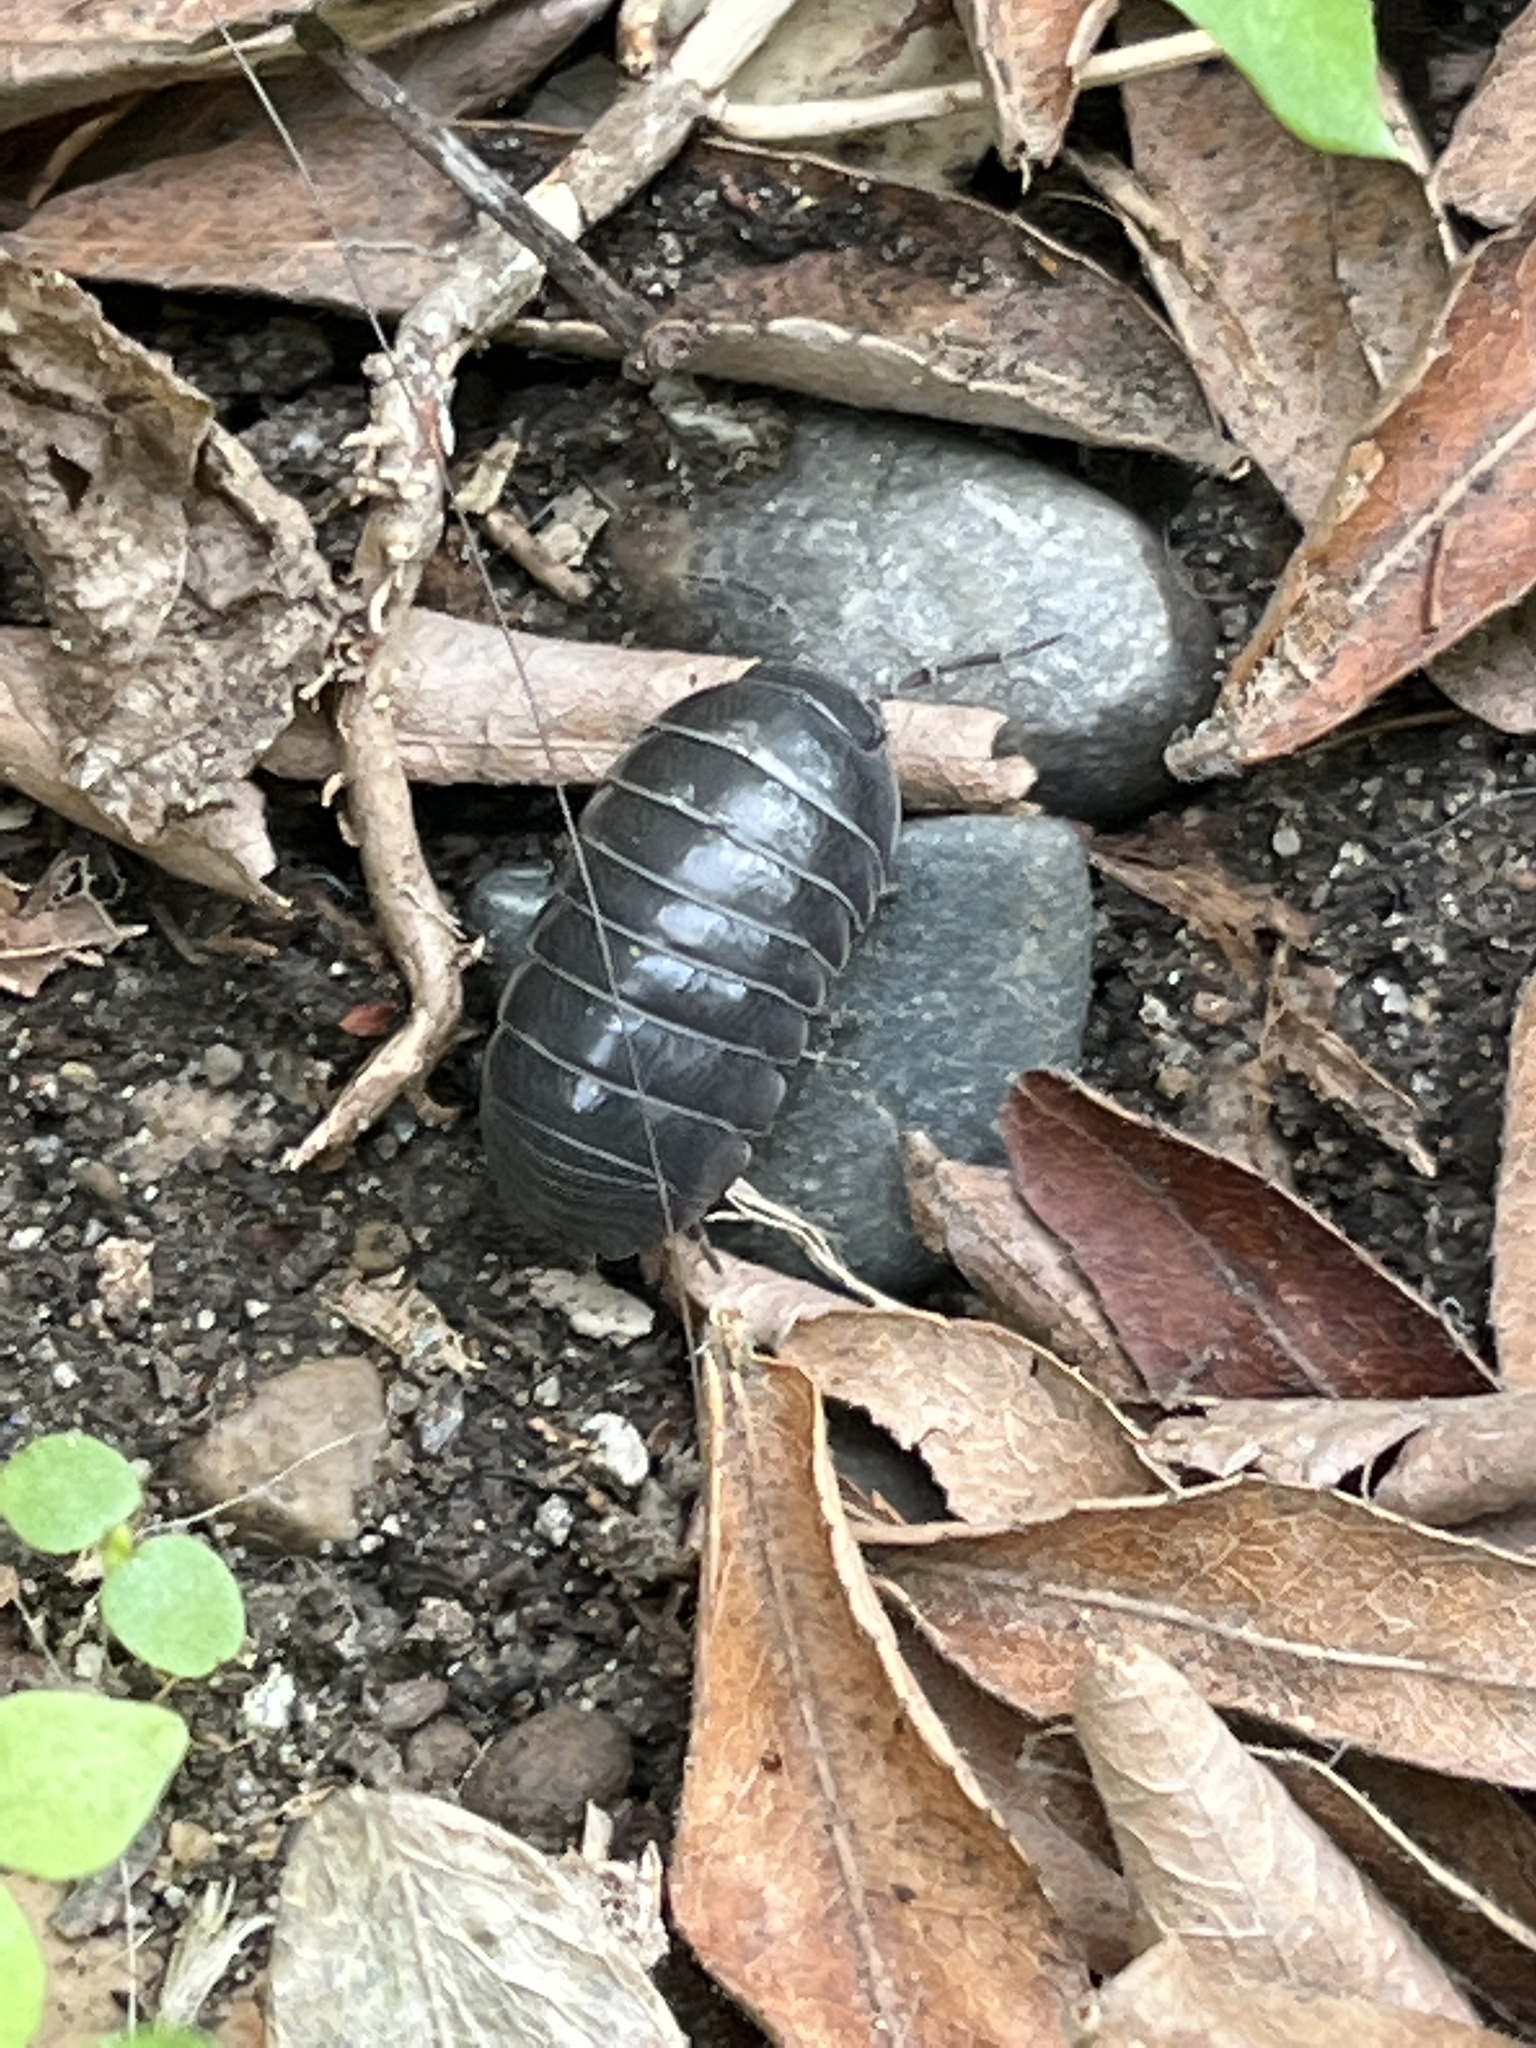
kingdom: Animalia
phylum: Arthropoda
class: Malacostraca
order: Isopoda
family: Armadillidiidae
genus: Armadillidium
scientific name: Armadillidium vulgare
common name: Common pill woodlouse
